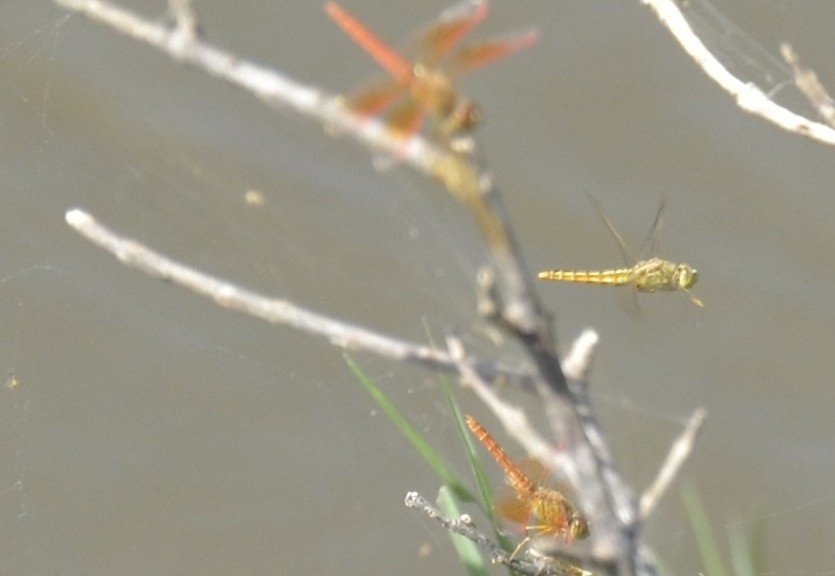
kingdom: Animalia
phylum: Arthropoda
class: Insecta
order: Odonata
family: Libellulidae
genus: Brachythemis
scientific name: Brachythemis contaminata
